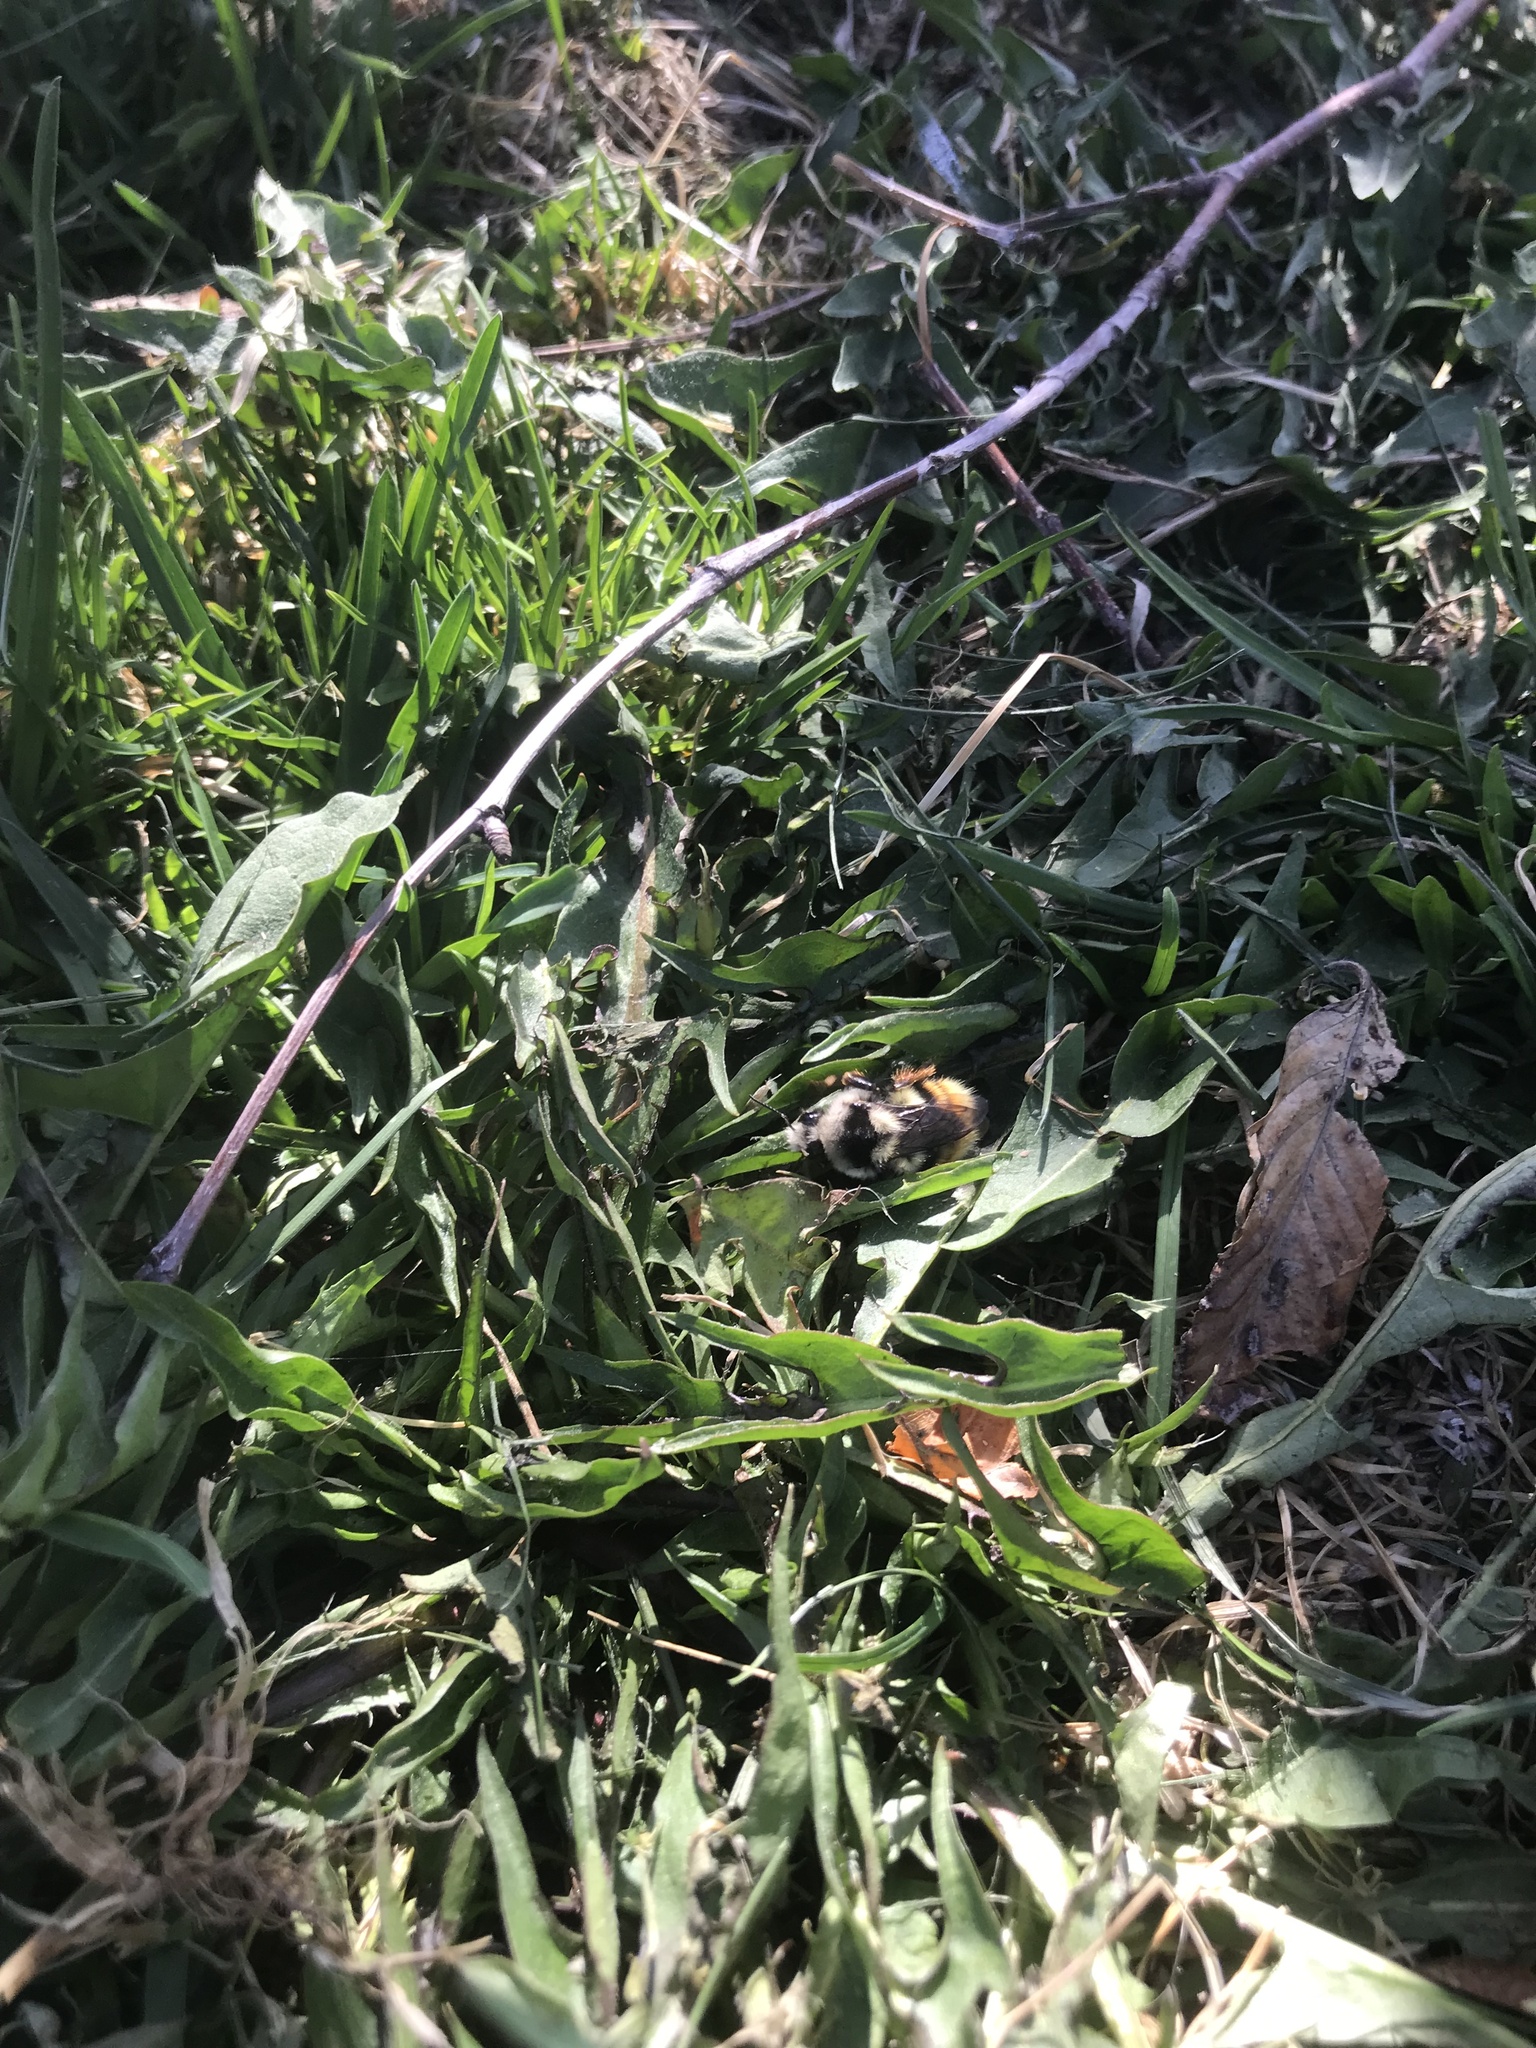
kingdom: Animalia
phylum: Arthropoda
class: Insecta
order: Hymenoptera
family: Apidae
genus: Bombus
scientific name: Bombus vancouverensis
